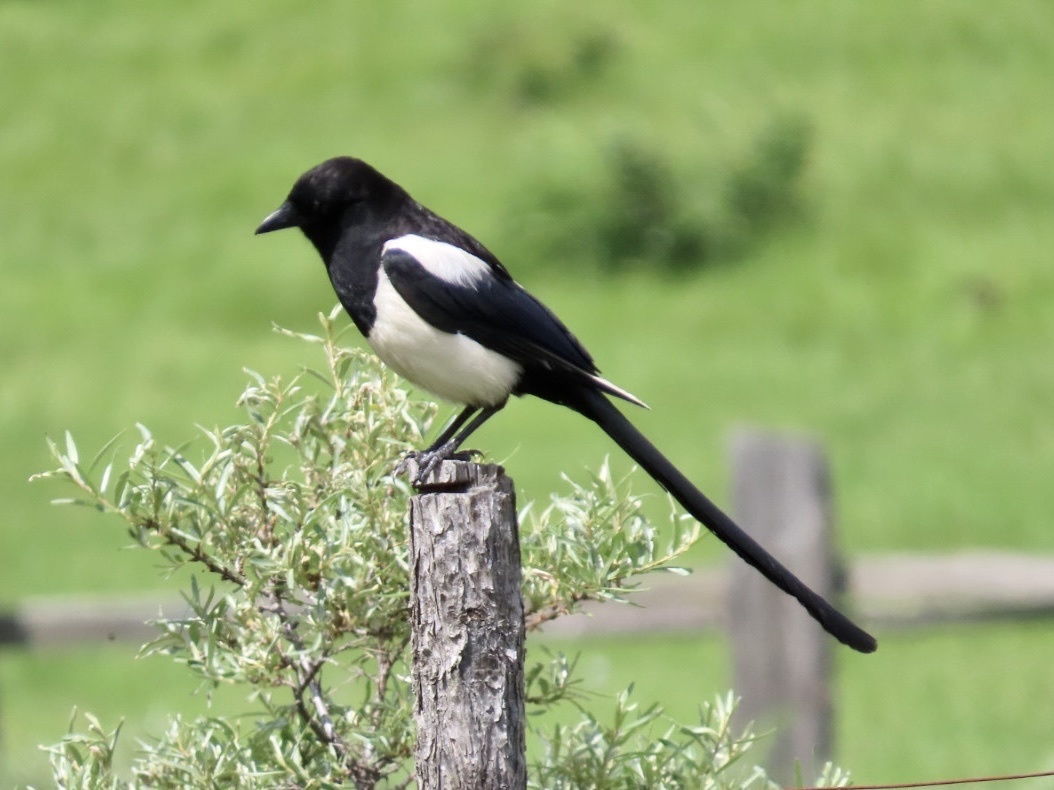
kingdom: Animalia
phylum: Chordata
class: Aves
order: Passeriformes
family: Corvidae
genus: Pica
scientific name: Pica pica
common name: Eurasian magpie
